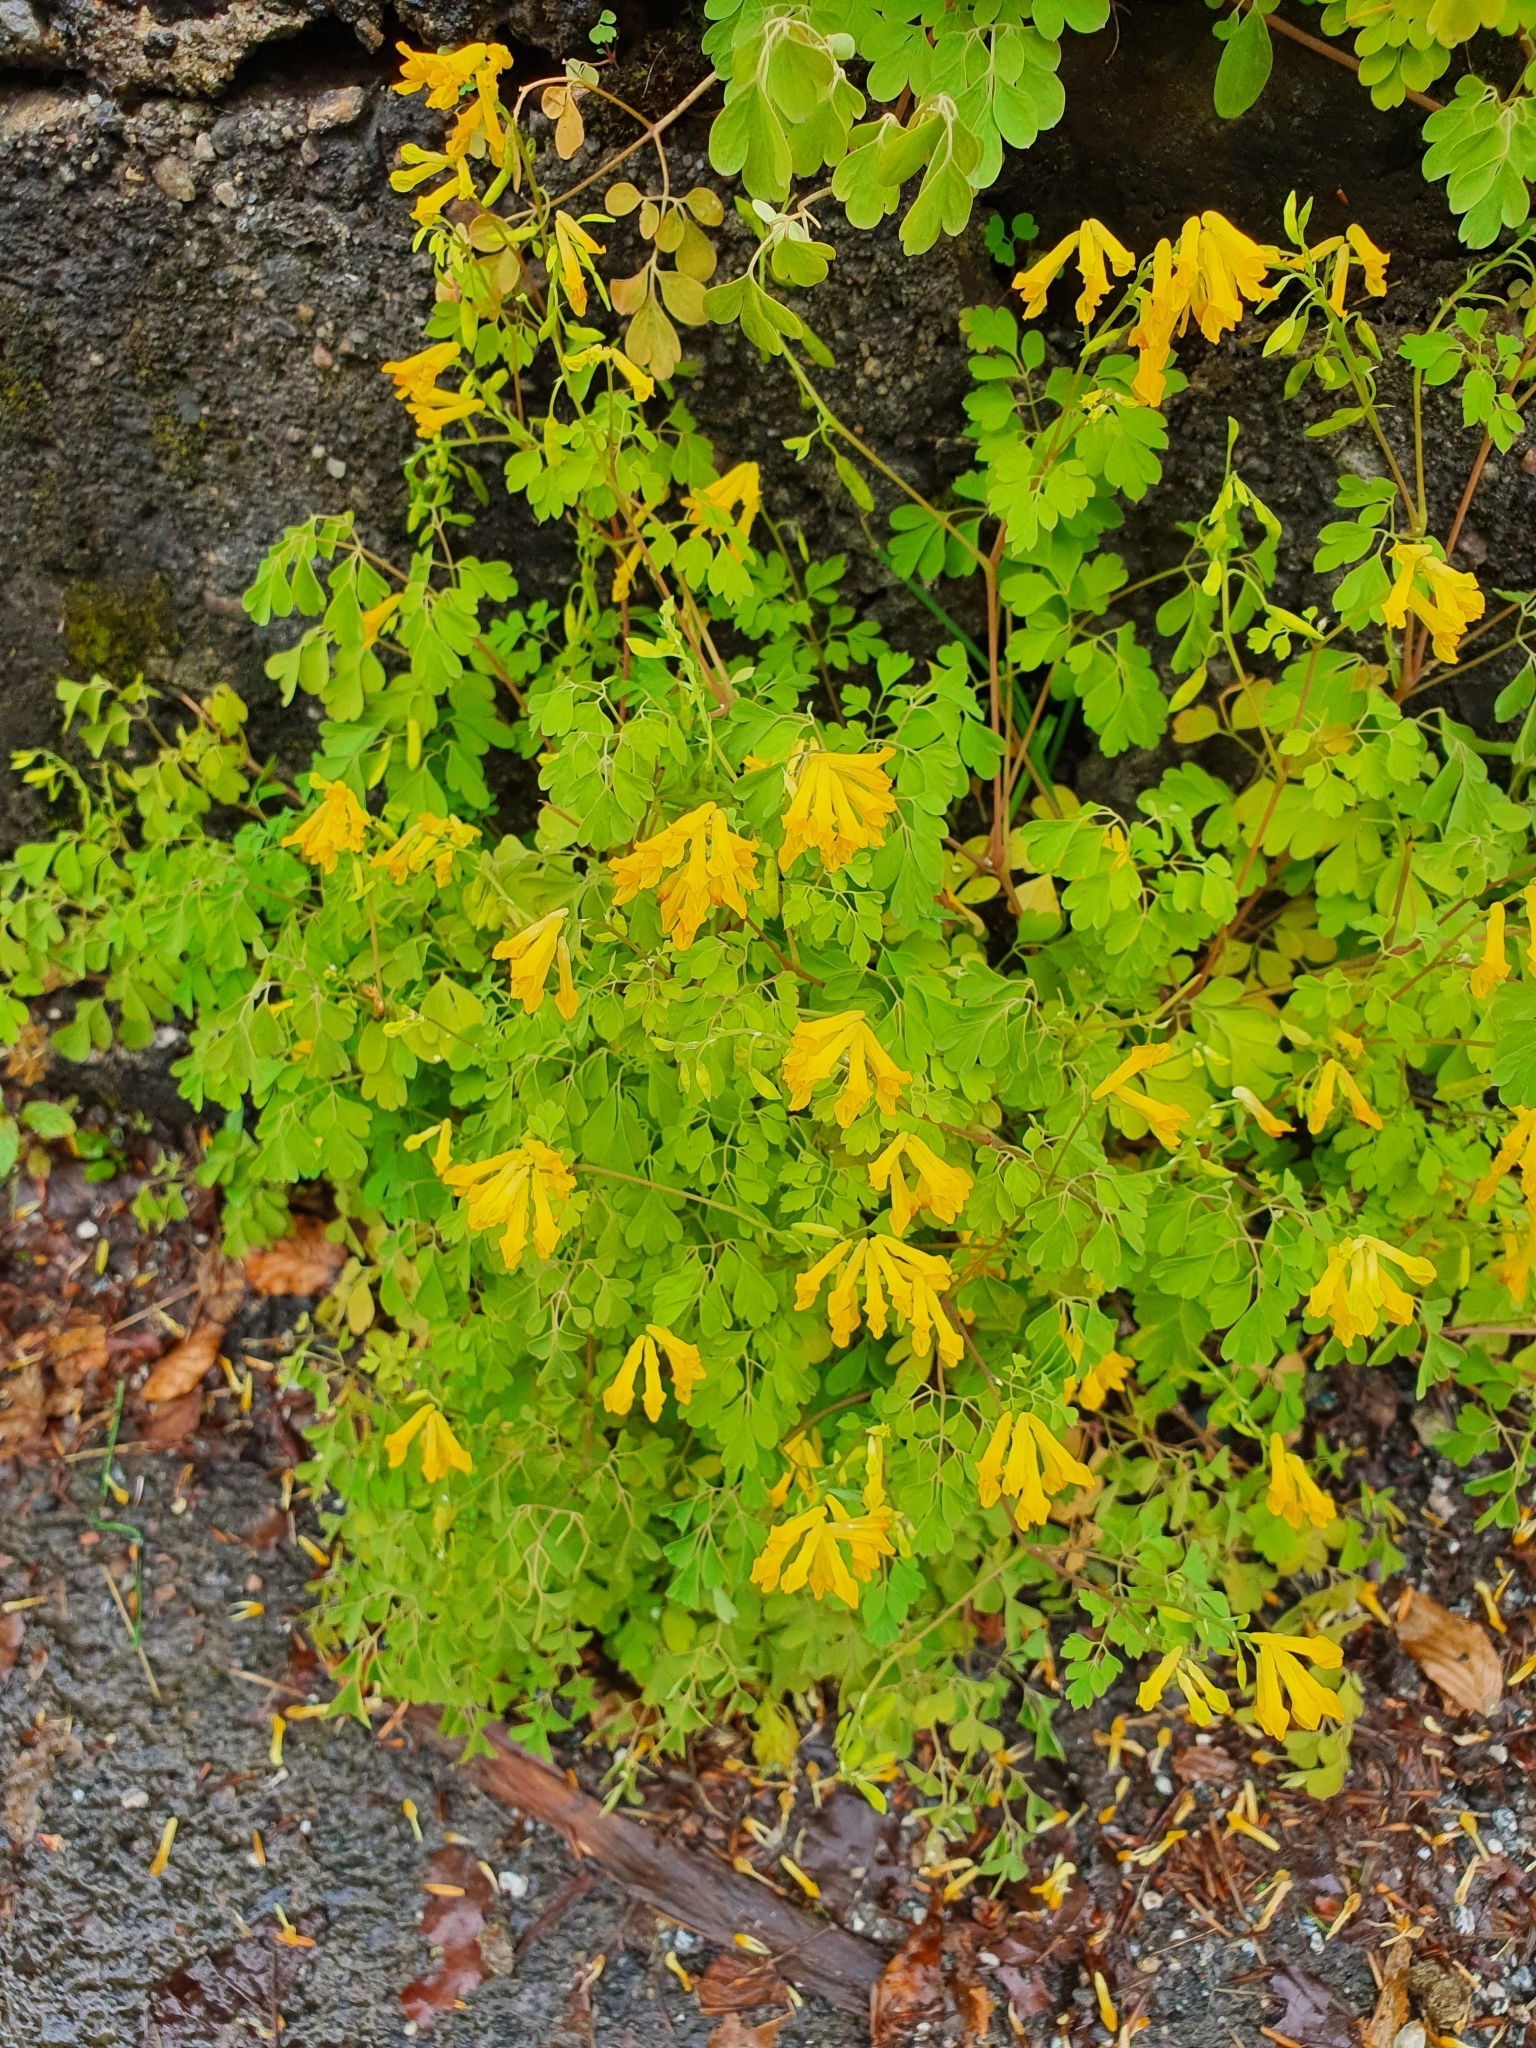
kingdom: Plantae
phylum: Tracheophyta
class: Magnoliopsida
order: Ranunculales
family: Papaveraceae
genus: Pseudofumaria
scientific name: Pseudofumaria lutea
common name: Yellow corydalis
